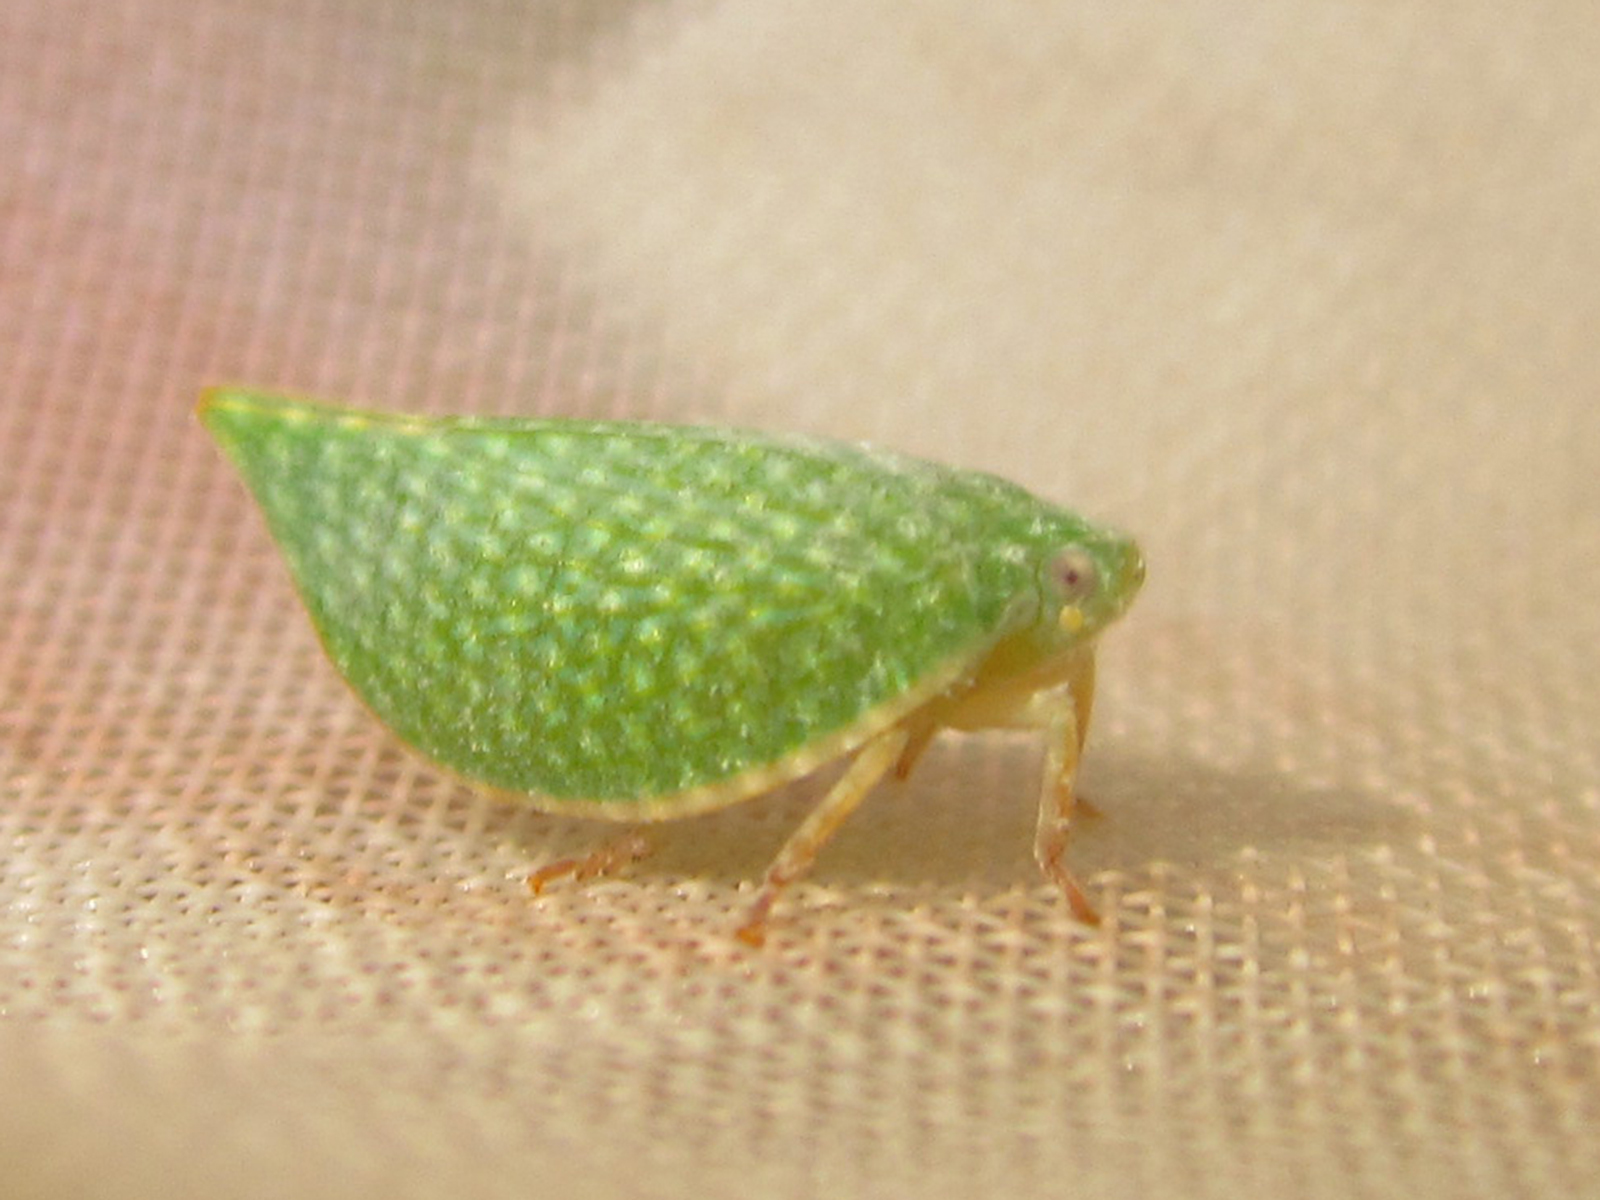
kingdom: Animalia
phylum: Arthropoda
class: Insecta
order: Hemiptera
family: Flatidae
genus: Arelate
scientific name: Arelate limbellata
